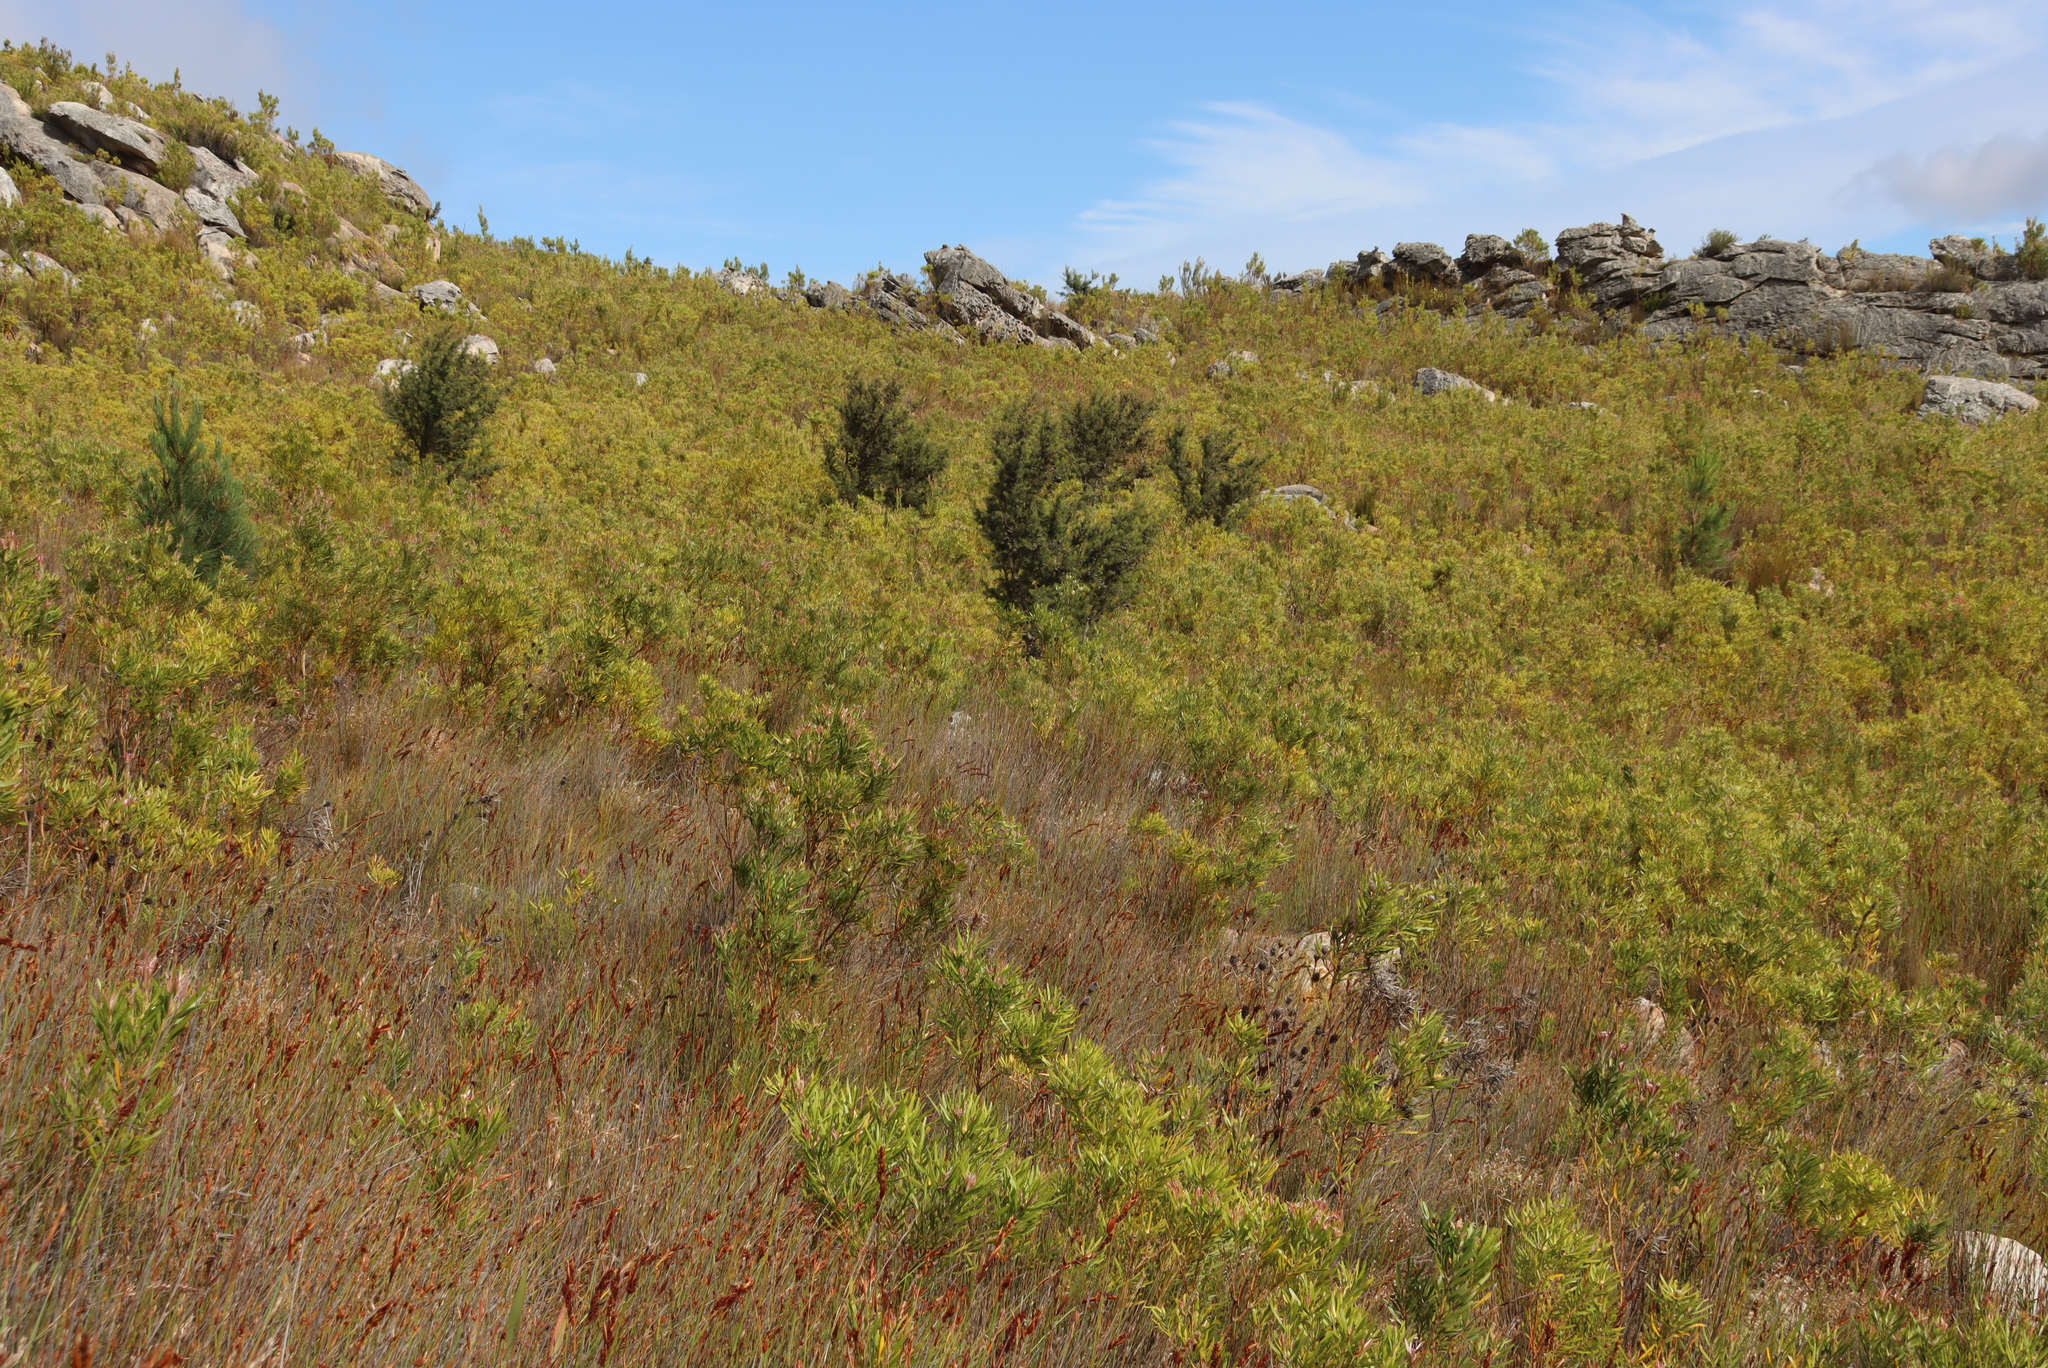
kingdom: Plantae
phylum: Tracheophyta
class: Magnoliopsida
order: Proteales
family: Proteaceae
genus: Hakea
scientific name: Hakea sericea
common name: Needle bush
